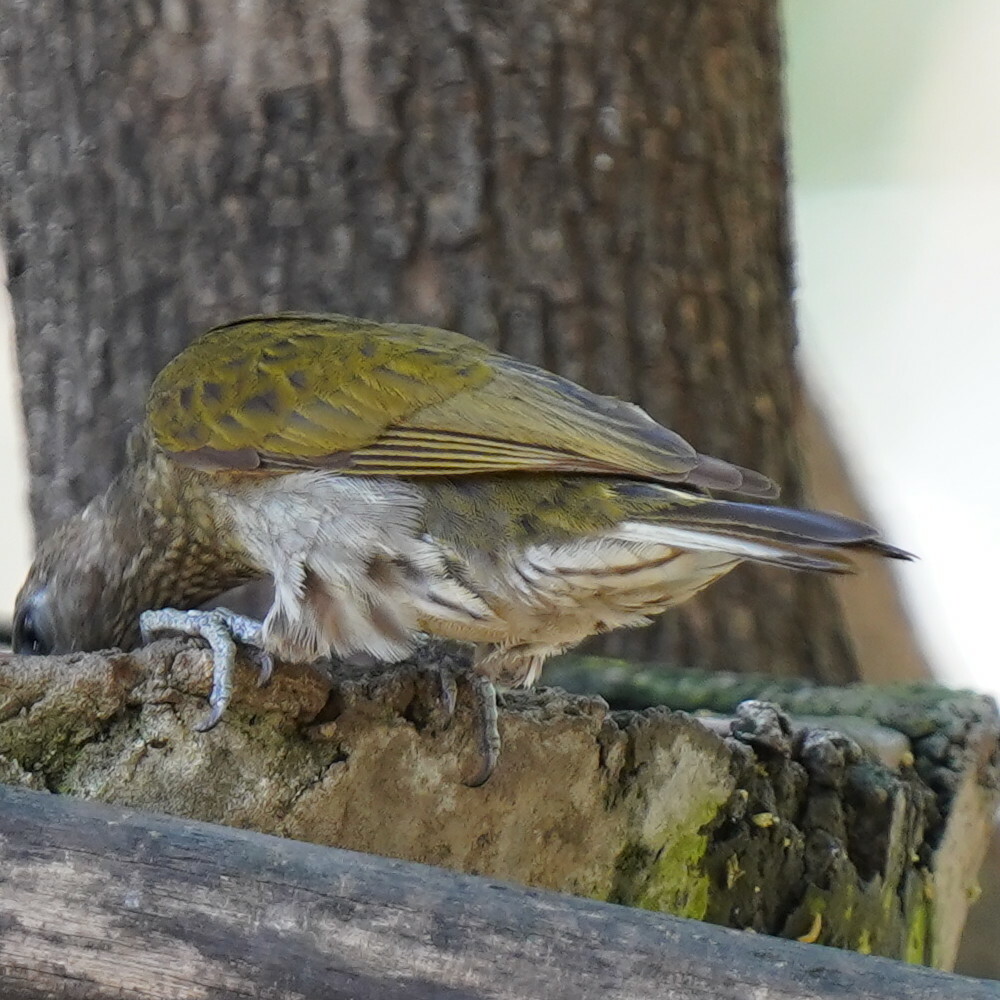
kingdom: Animalia
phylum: Chordata
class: Aves
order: Piciformes
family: Indicatoridae
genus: Indicator
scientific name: Indicator maculatus
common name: Spotted honeyguide
